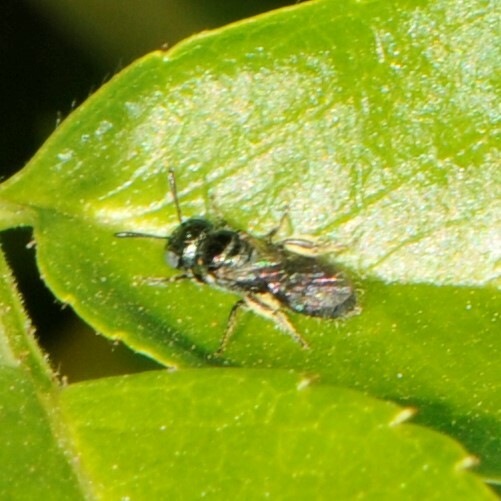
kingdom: Animalia
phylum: Arthropoda
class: Insecta
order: Hymenoptera
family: Apidae
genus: Zadontomerus
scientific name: Zadontomerus
